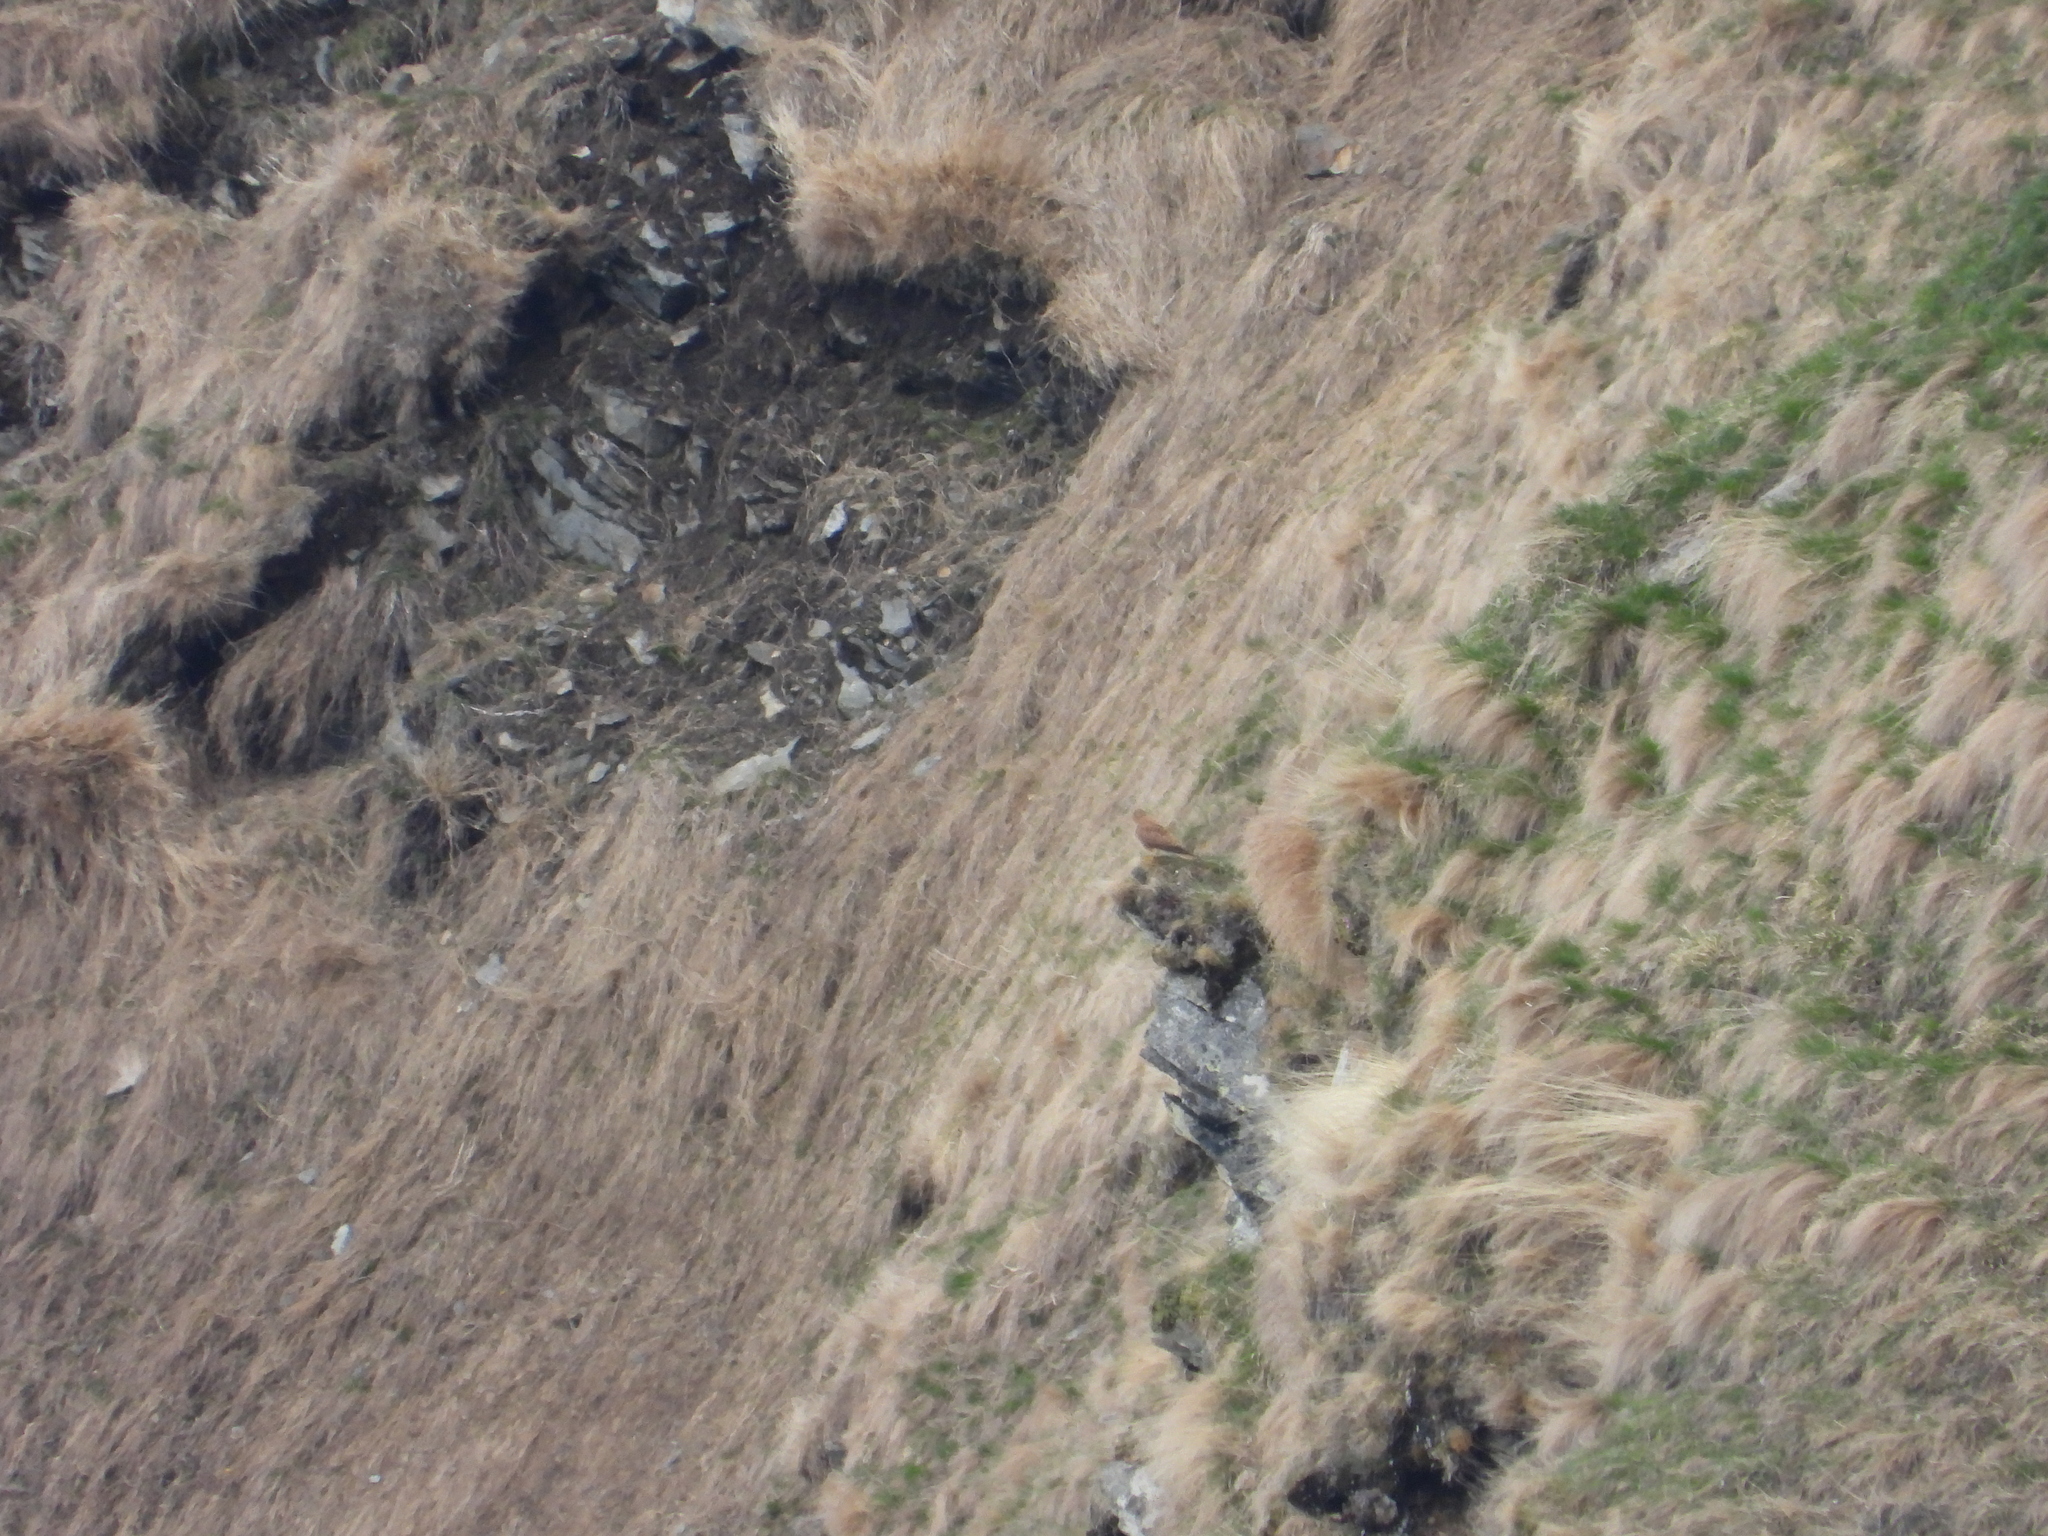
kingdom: Animalia
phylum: Chordata
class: Aves
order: Falconiformes
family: Falconidae
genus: Falco
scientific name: Falco tinnunculus
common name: Common kestrel
